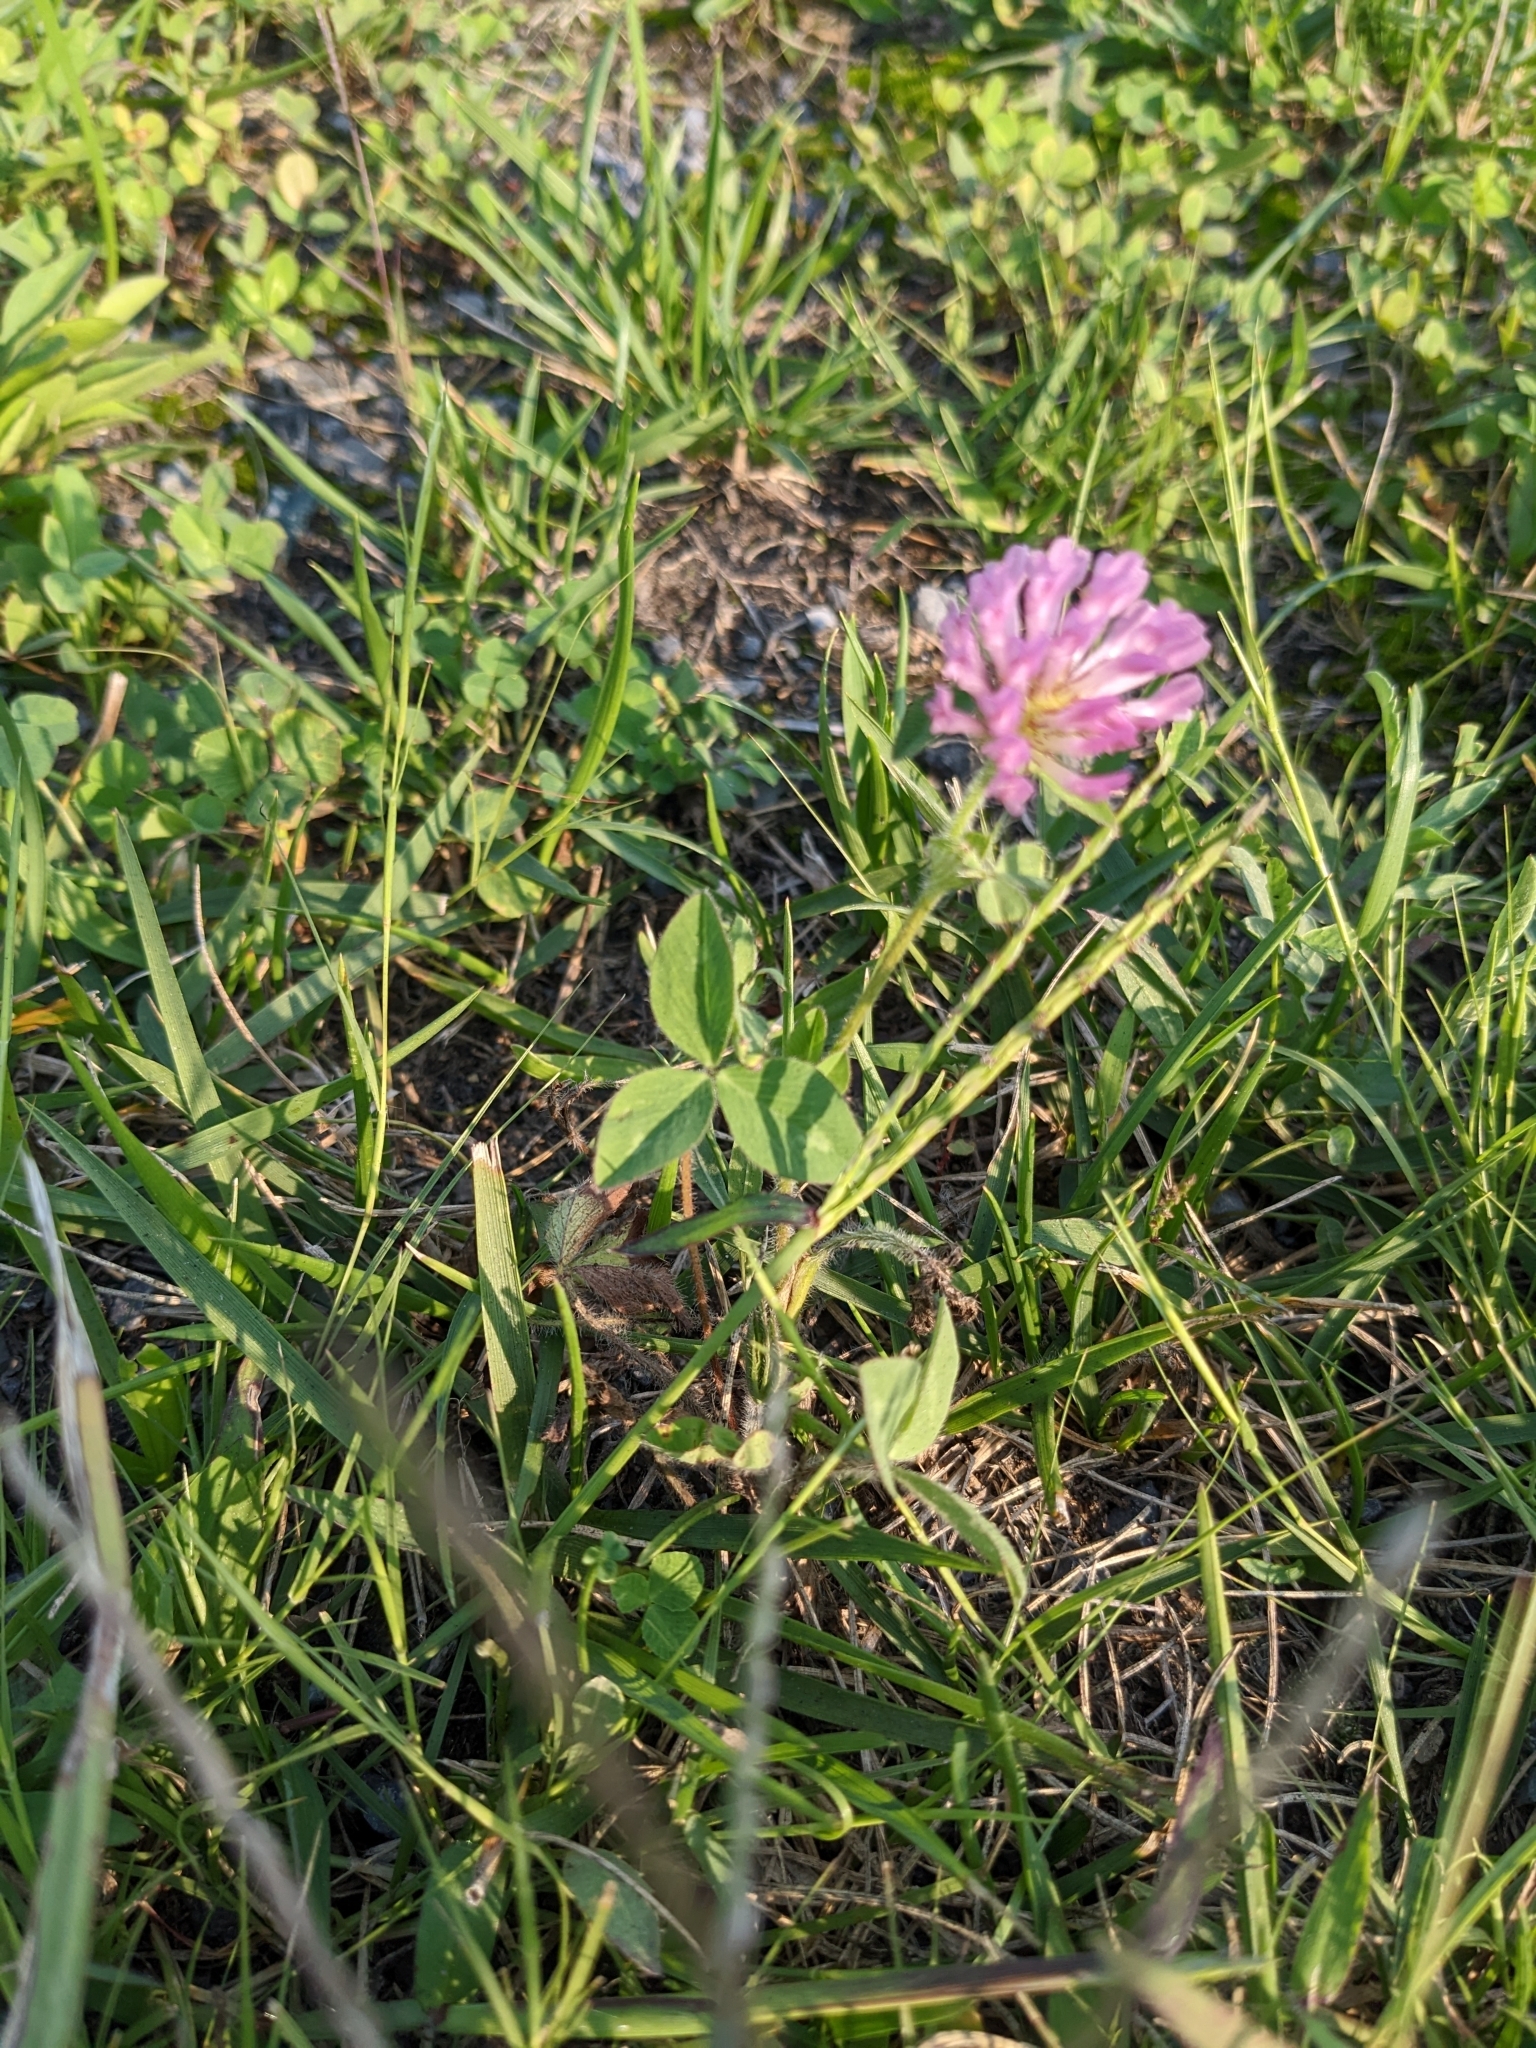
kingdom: Plantae
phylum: Tracheophyta
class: Magnoliopsida
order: Fabales
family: Fabaceae
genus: Trifolium
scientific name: Trifolium pratense
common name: Red clover
